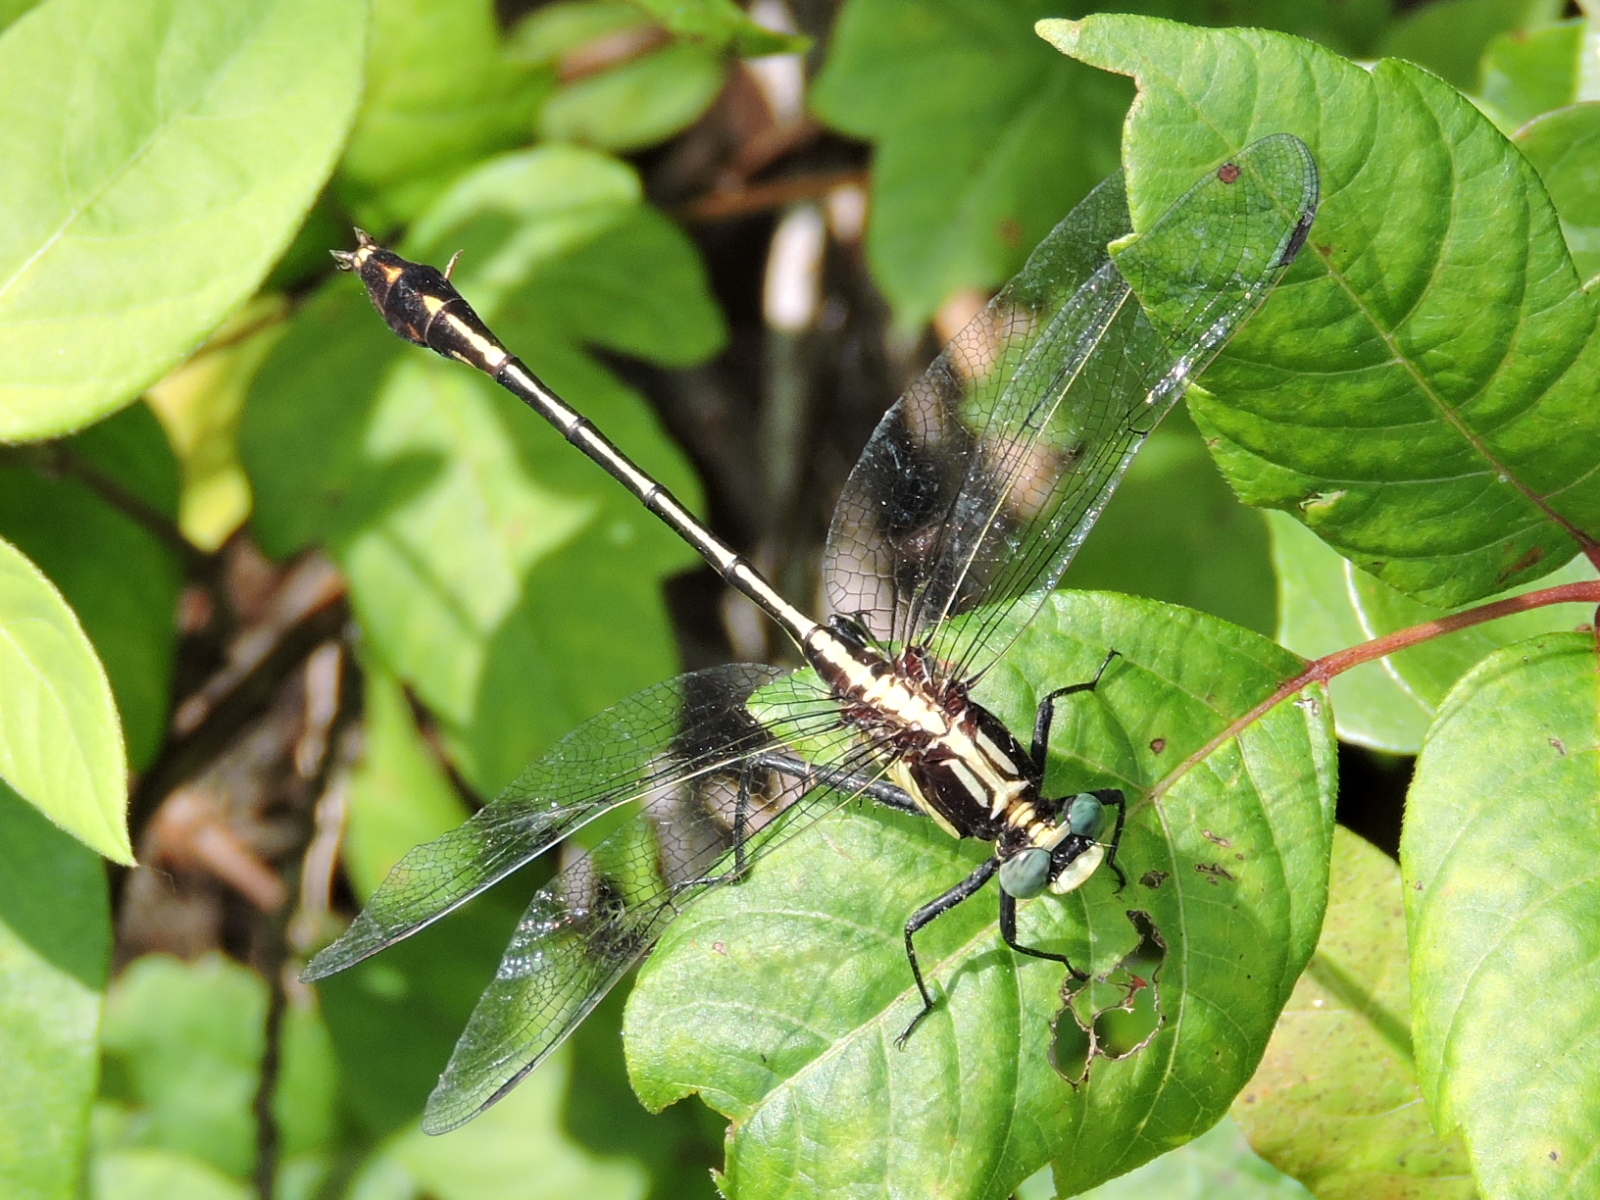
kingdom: Animalia
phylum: Arthropoda
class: Insecta
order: Odonata
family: Gomphidae
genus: Dromogomphus
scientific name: Dromogomphus spinosus
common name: Black-shouldered spinyleg
